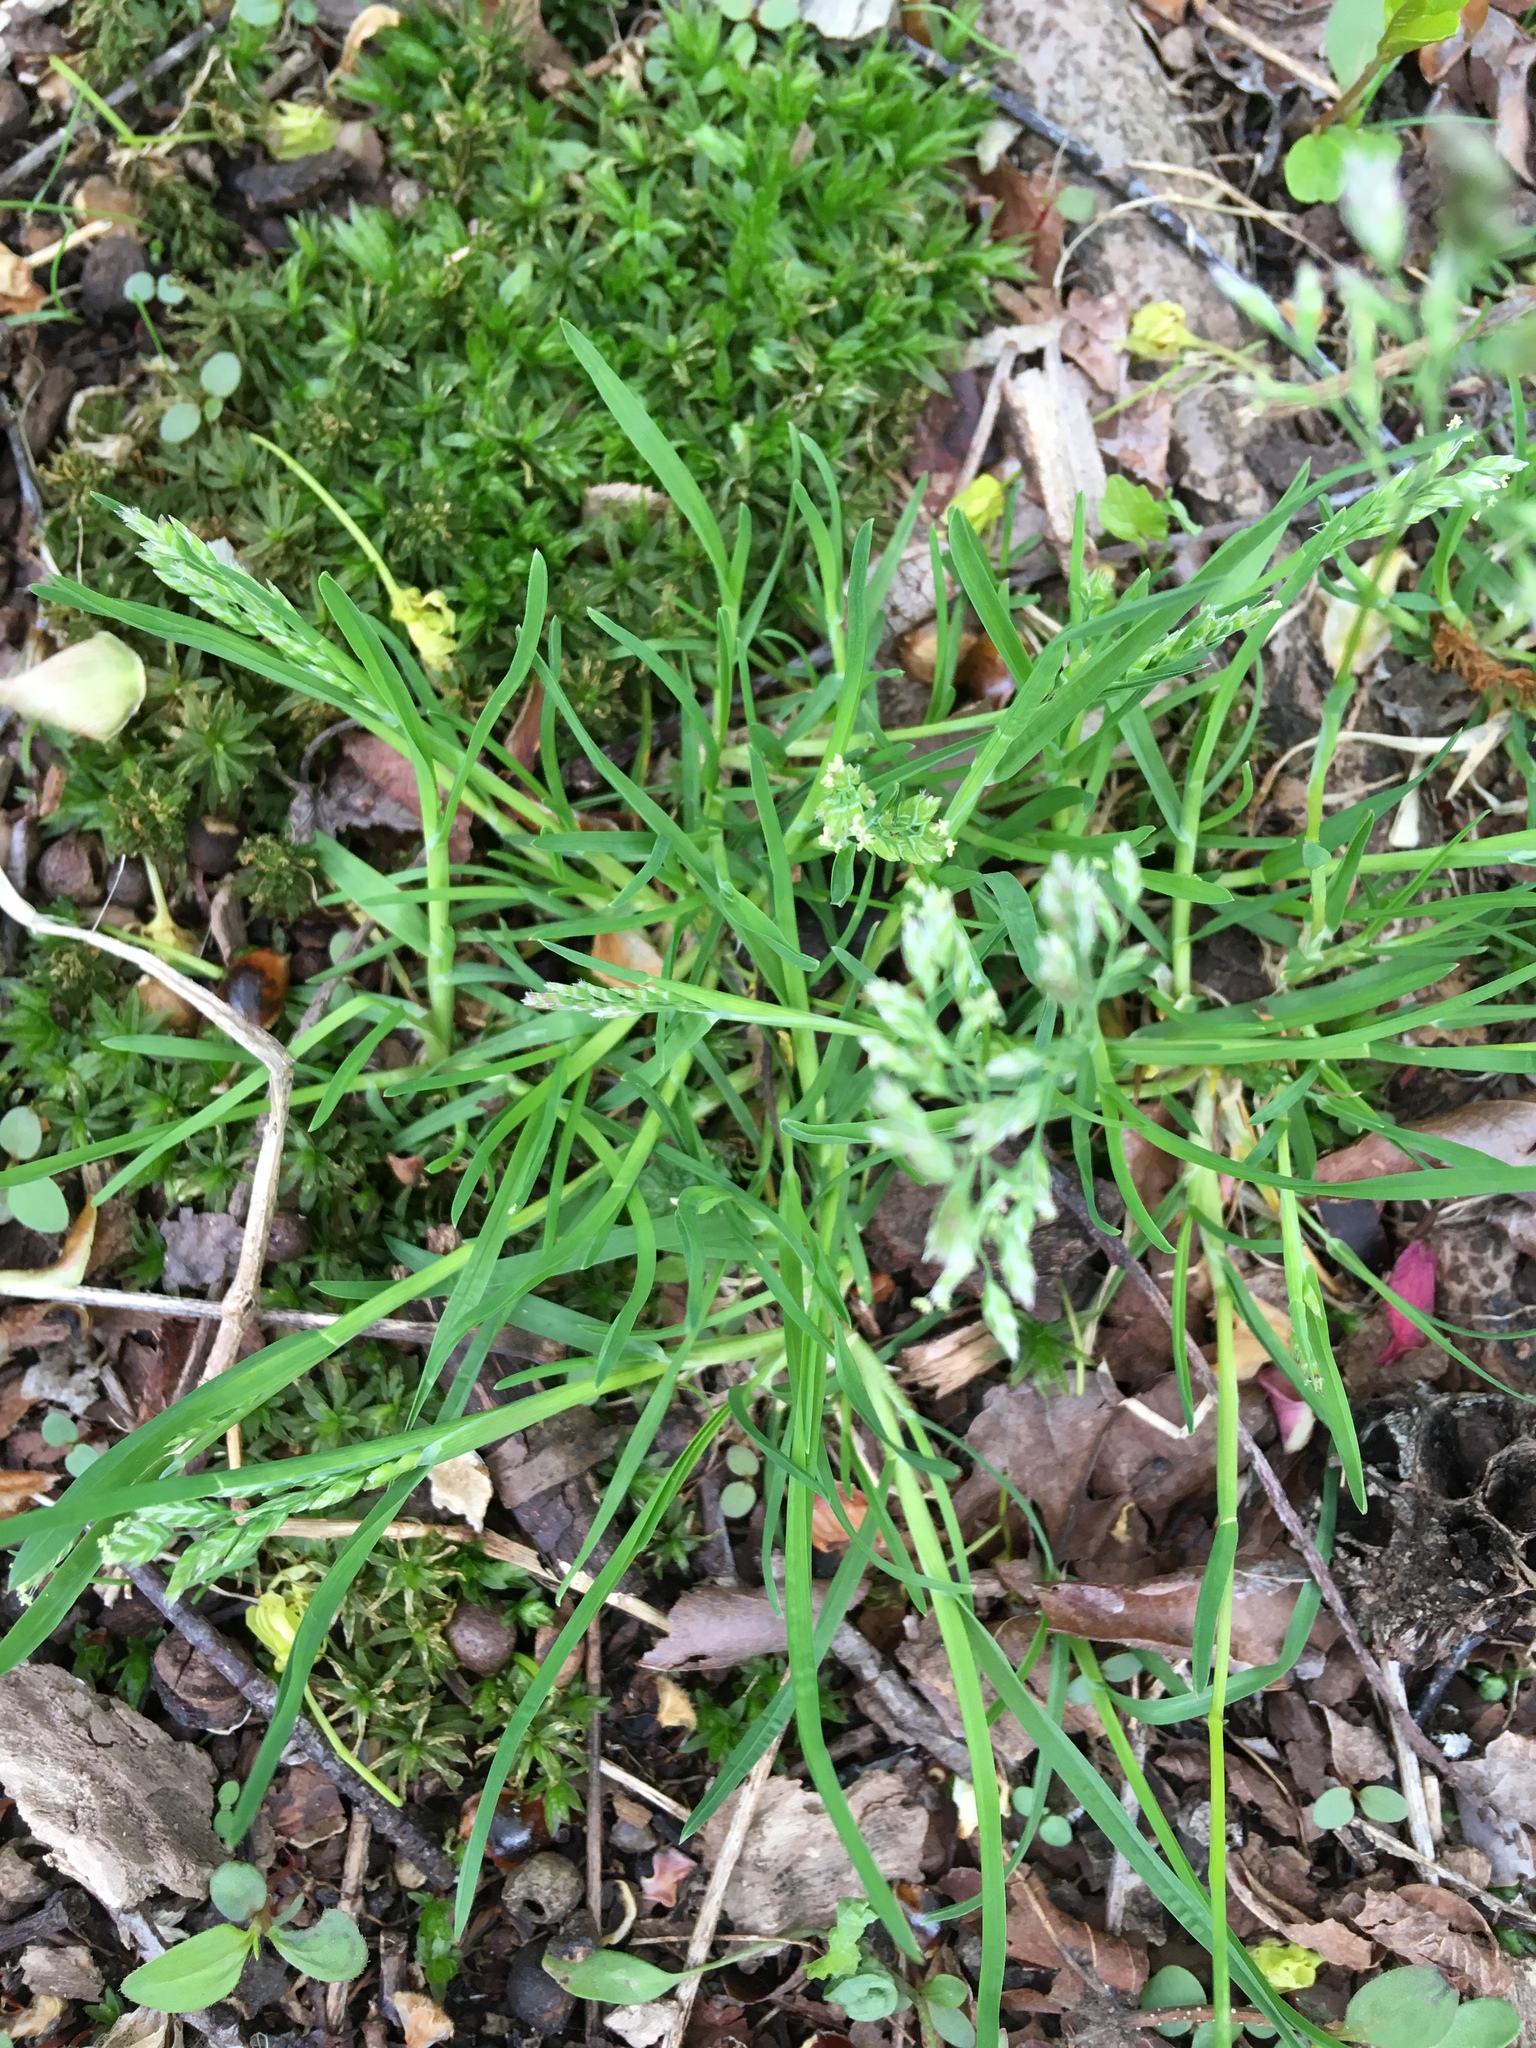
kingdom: Plantae
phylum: Tracheophyta
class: Liliopsida
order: Poales
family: Poaceae
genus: Poa
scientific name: Poa annua
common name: Annual bluegrass
